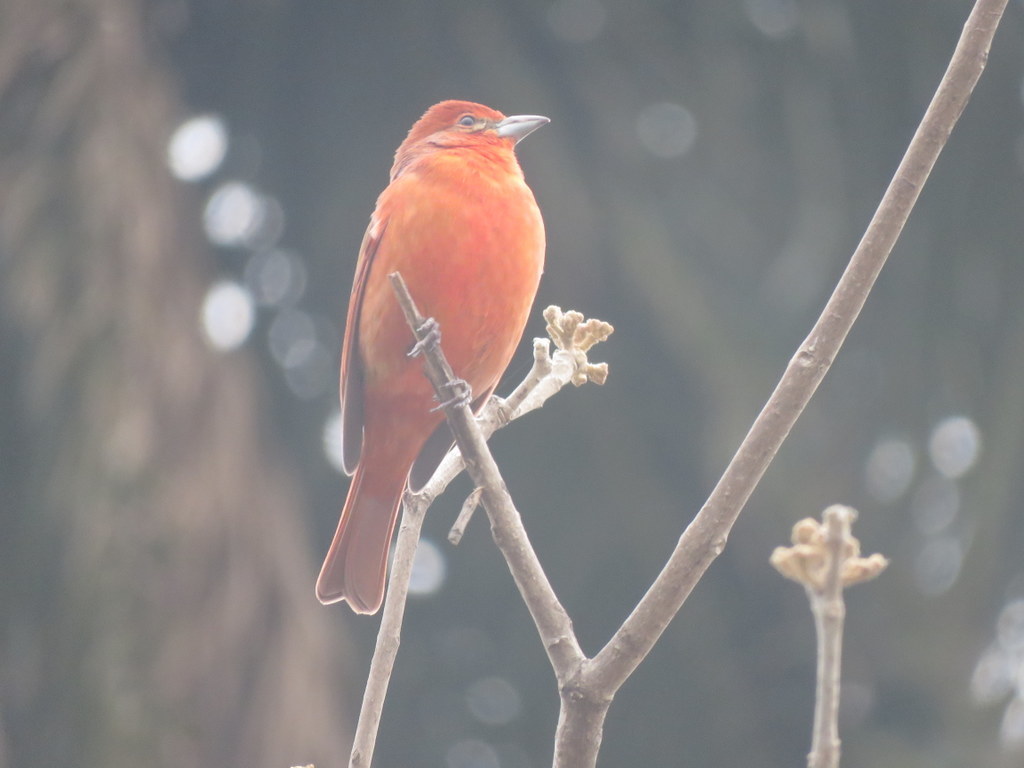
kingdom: Animalia
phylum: Chordata
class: Aves
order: Passeriformes
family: Cardinalidae
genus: Piranga
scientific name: Piranga flava
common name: Red tanager
